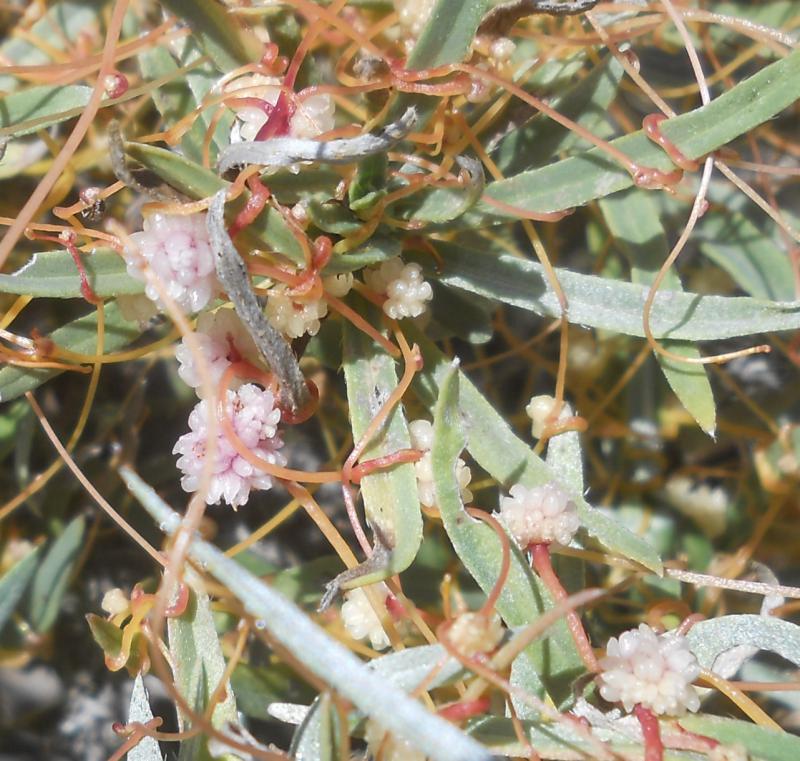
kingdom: Plantae
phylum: Tracheophyta
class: Magnoliopsida
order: Solanales
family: Convolvulaceae
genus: Cuscuta
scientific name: Cuscuta planiflora
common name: Small-seed alfalfa dodder
